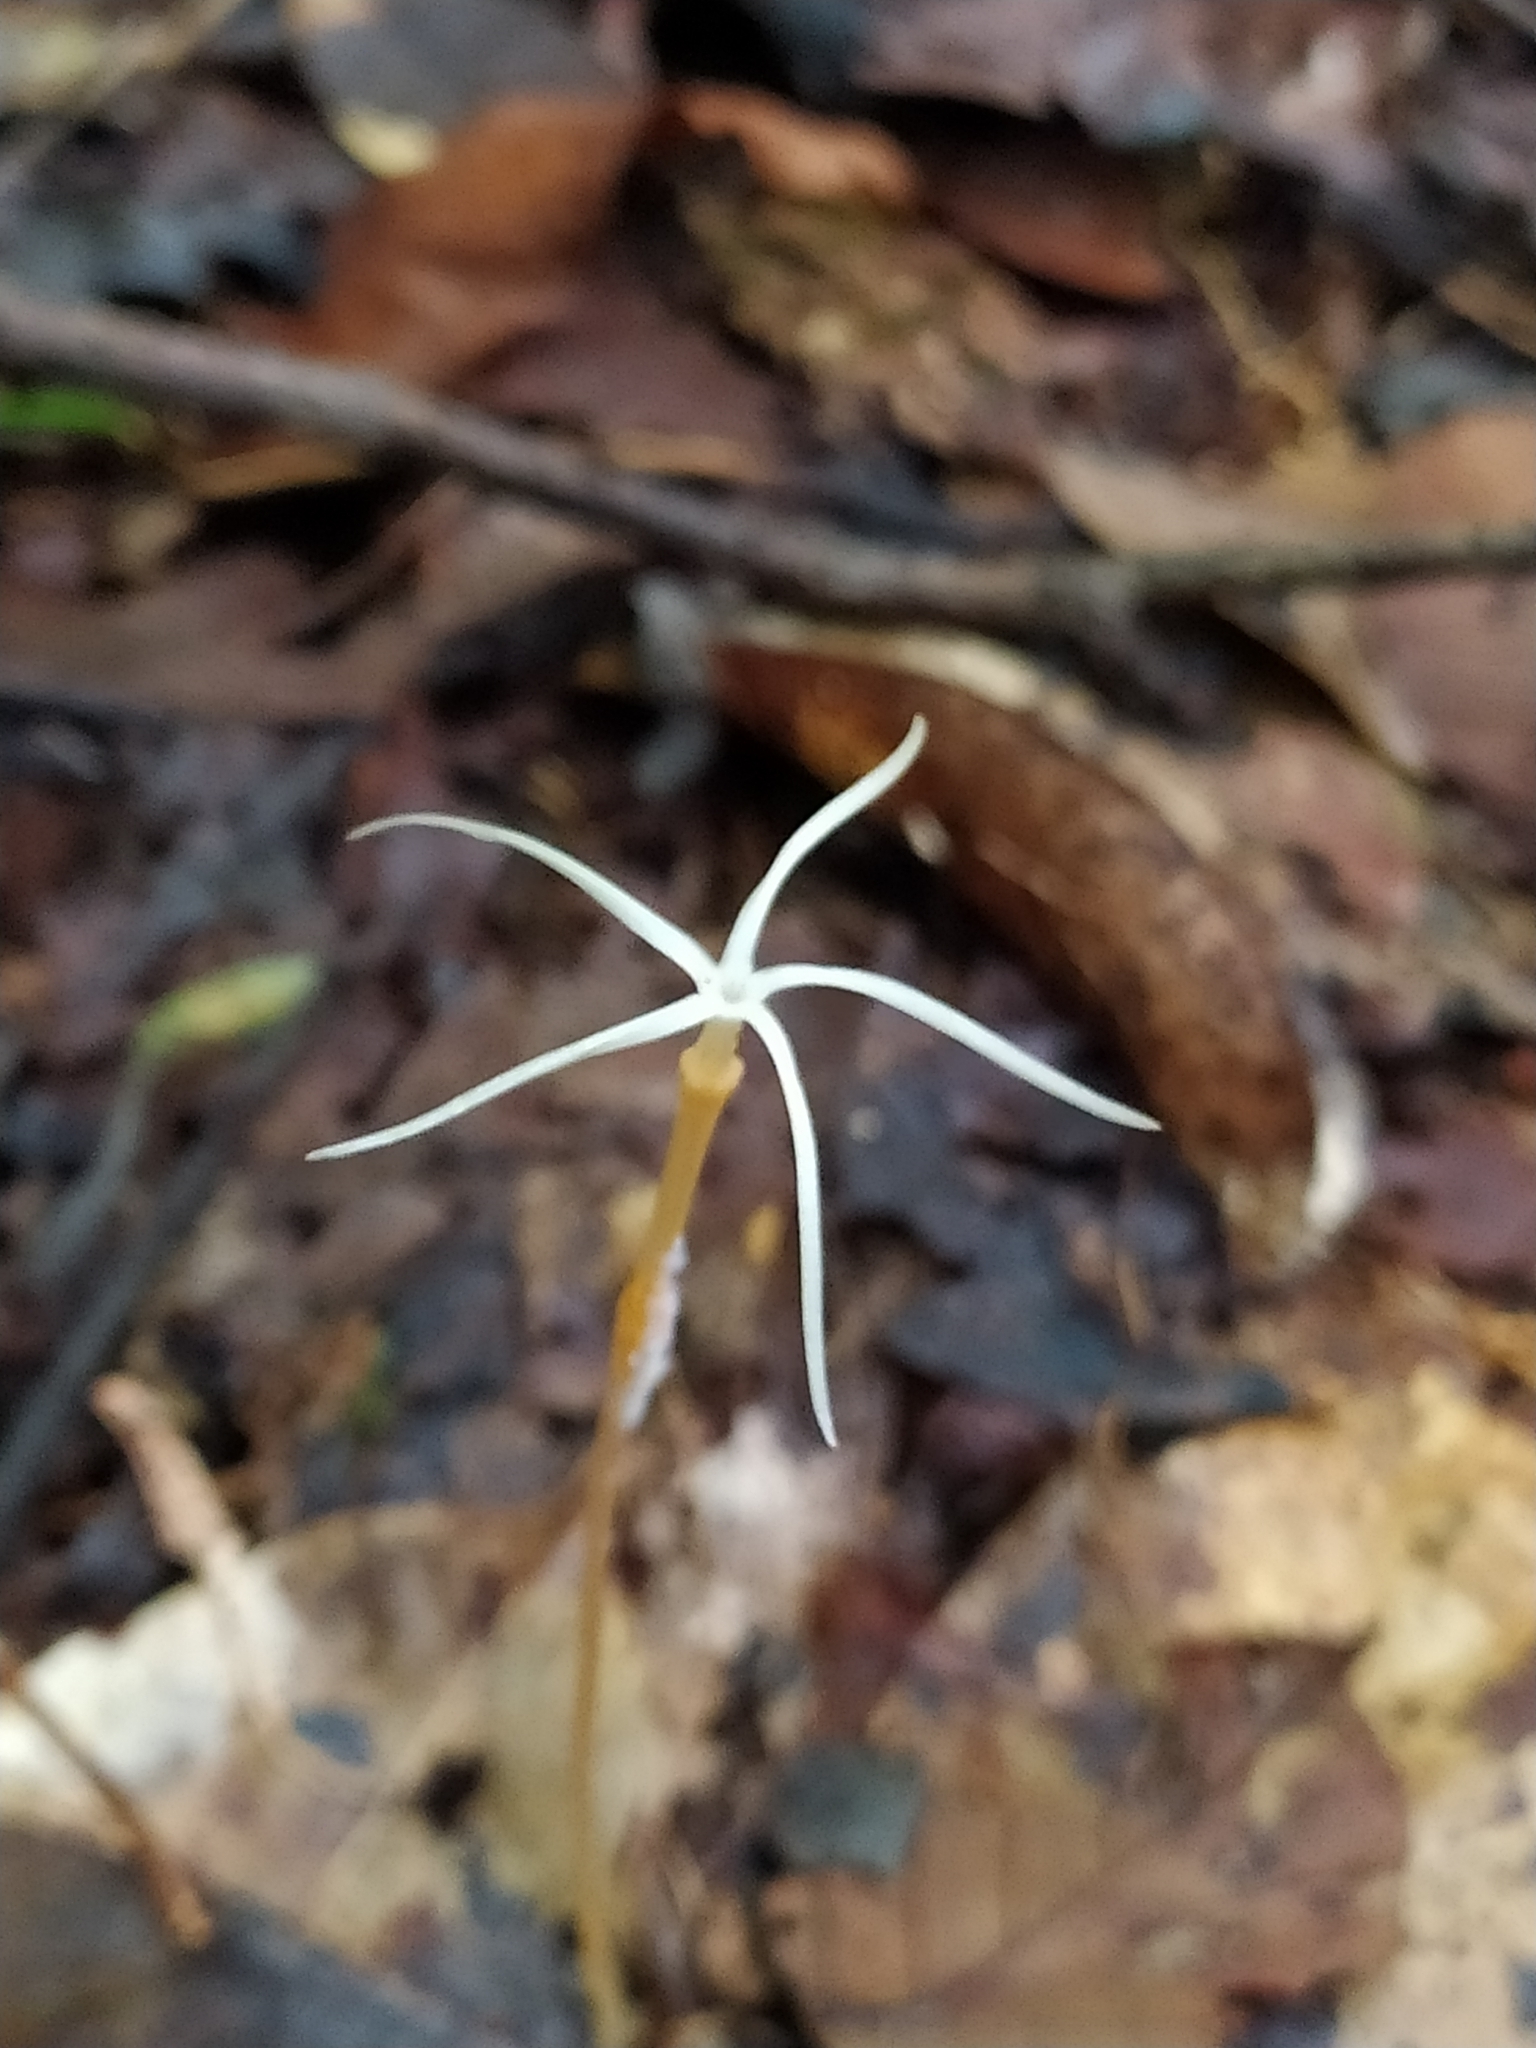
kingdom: Plantae
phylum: Tracheophyta
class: Magnoliopsida
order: Gentianales
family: Gentianaceae
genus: Voyria
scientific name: Voyria tenuiflora
